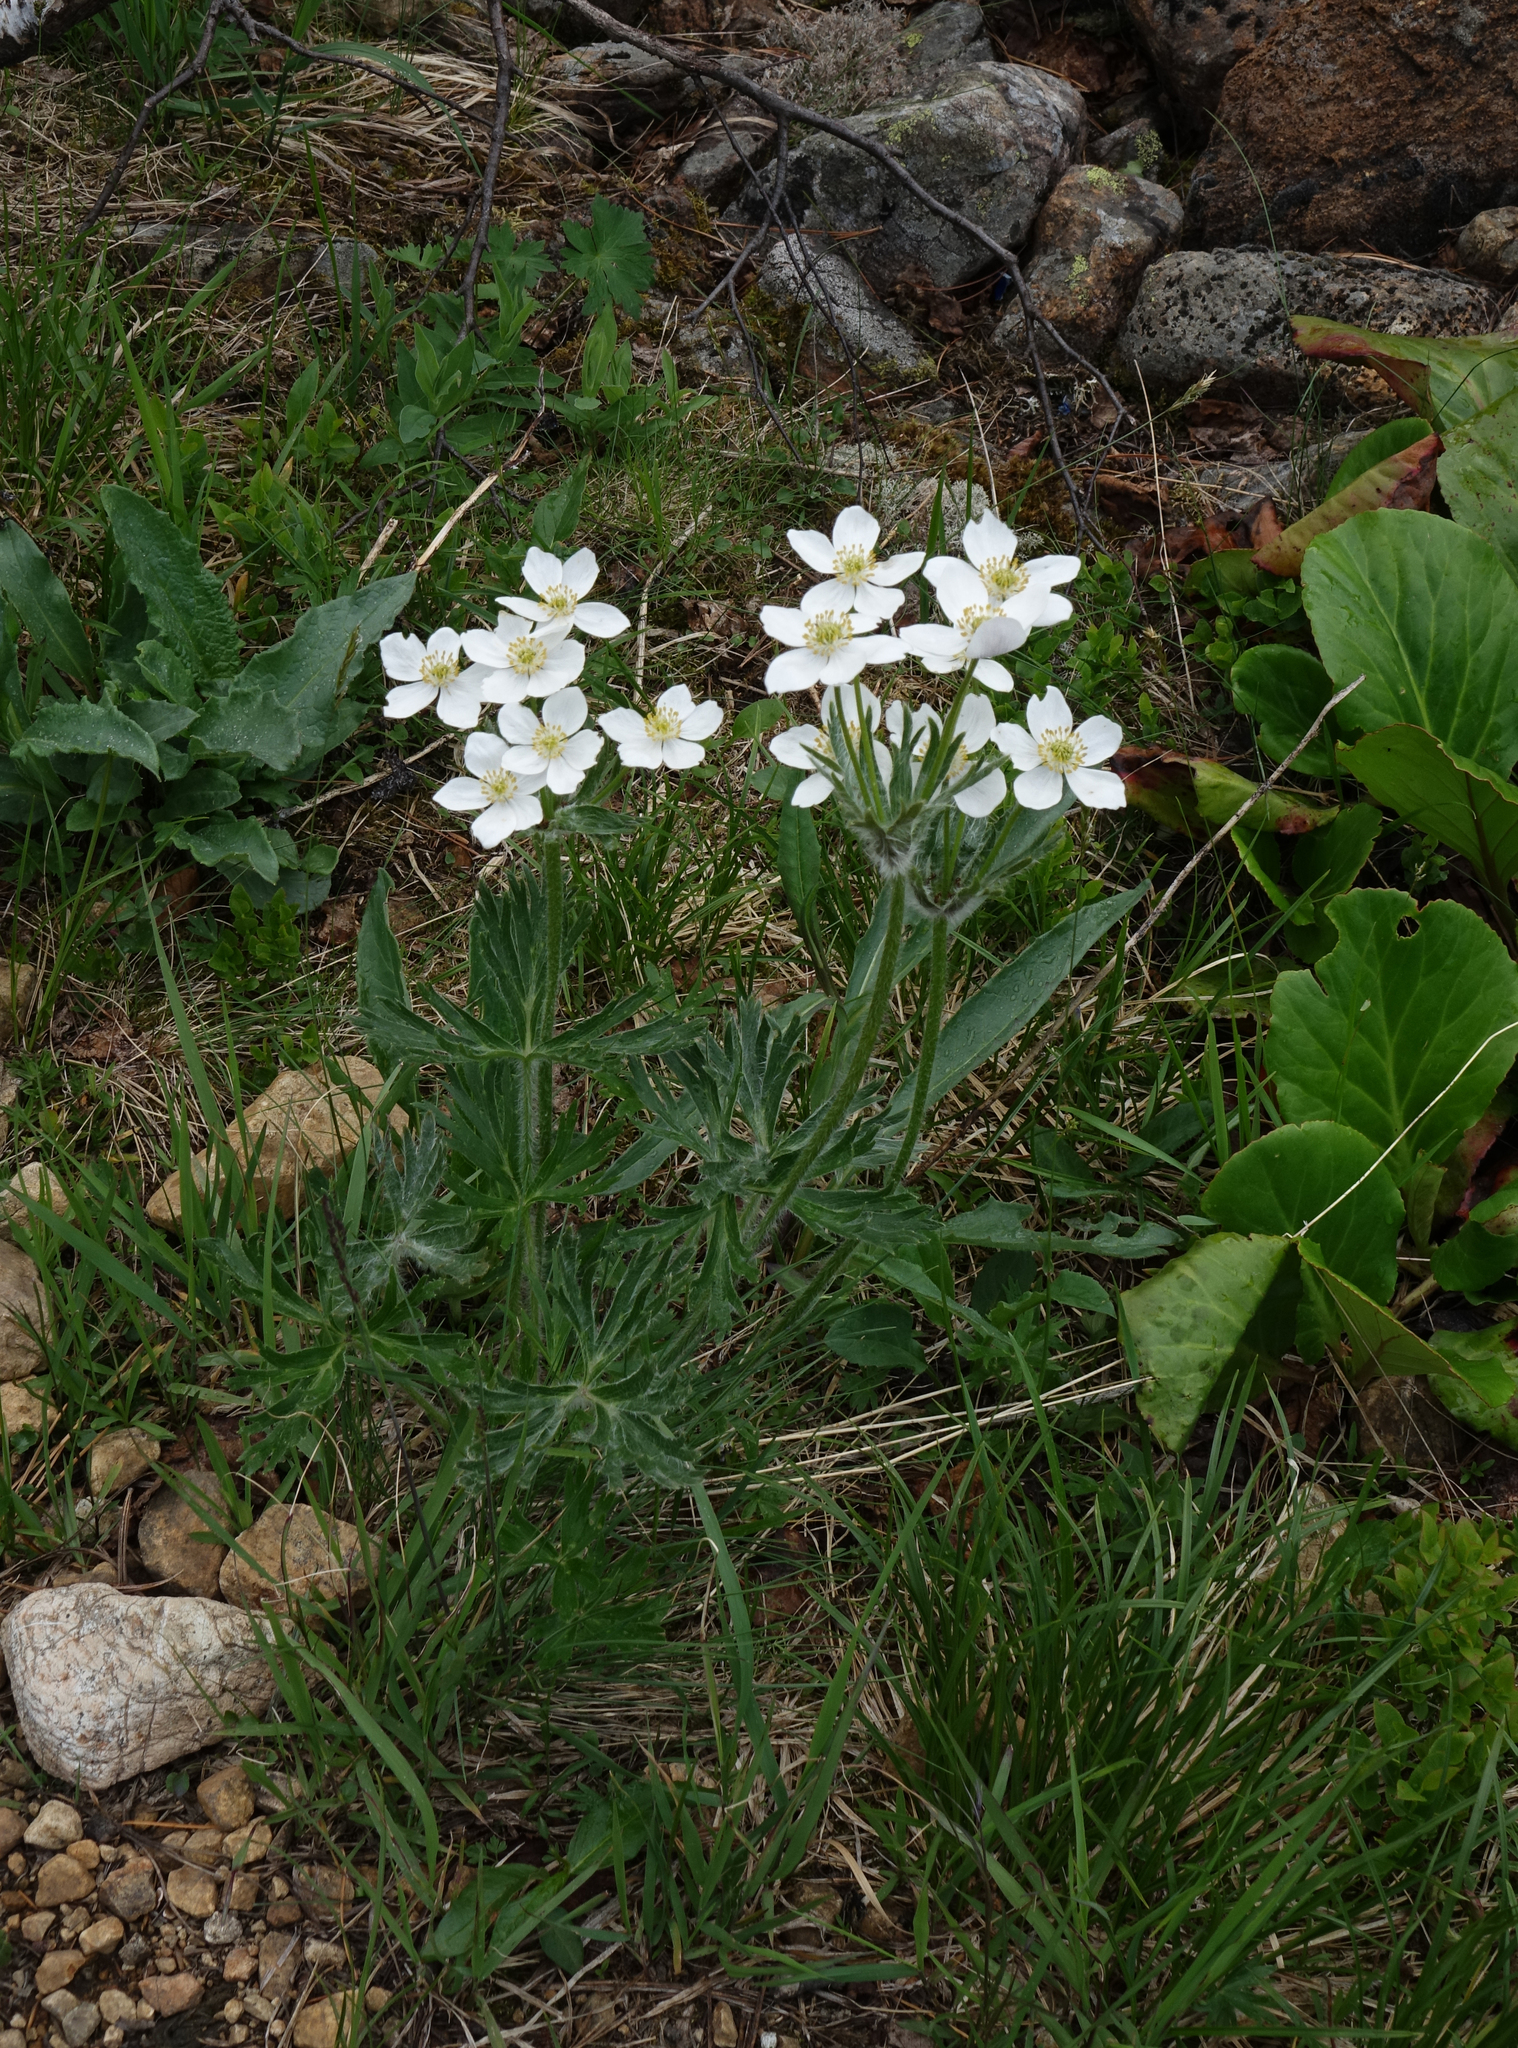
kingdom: Plantae
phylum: Tracheophyta
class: Magnoliopsida
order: Ranunculales
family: Ranunculaceae
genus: Anemonastrum
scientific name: Anemonastrum narcissiflorum
